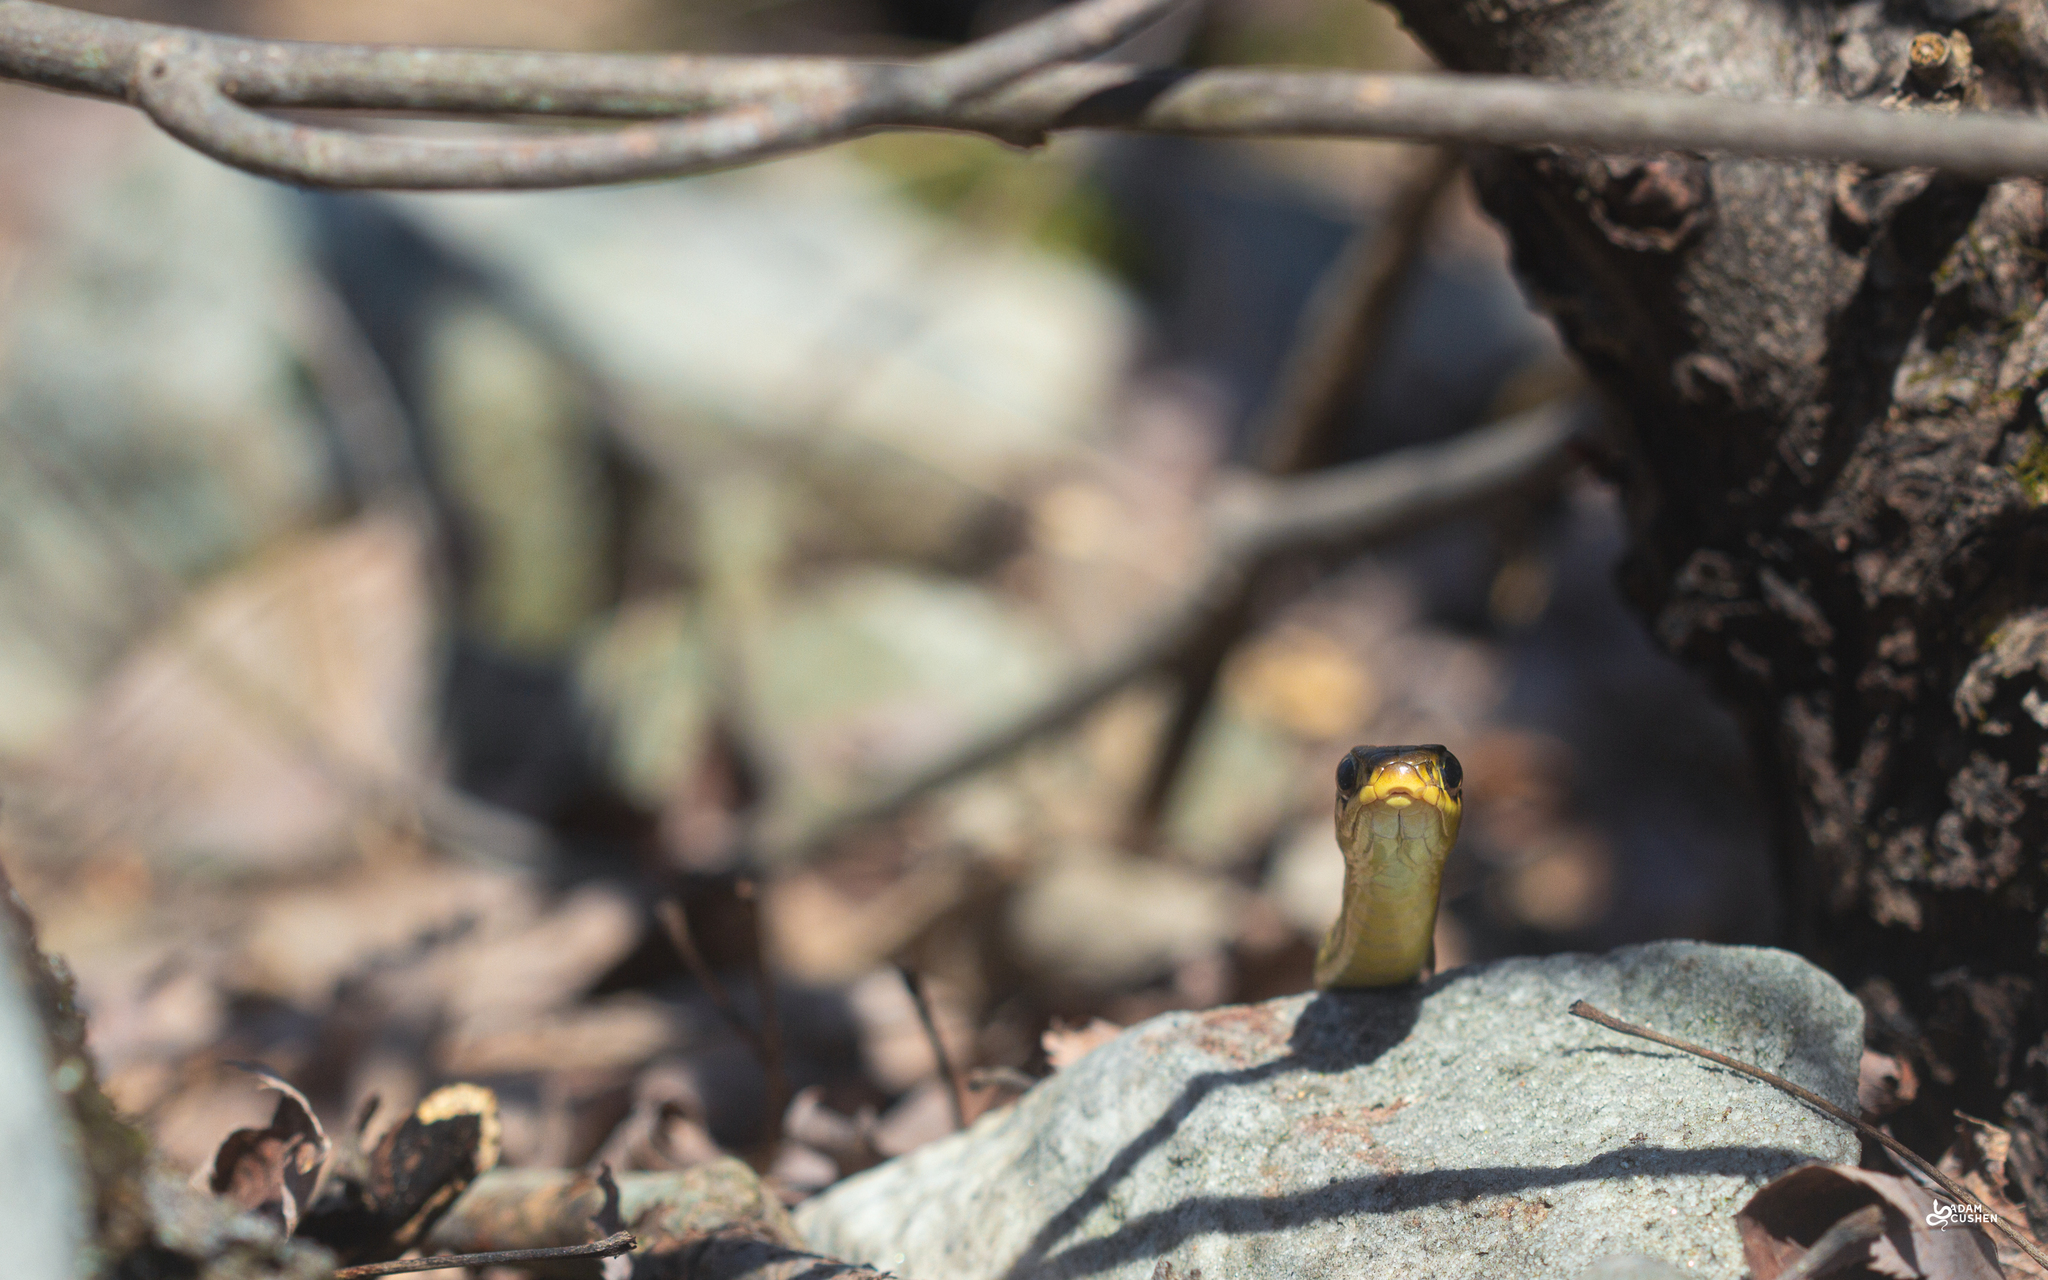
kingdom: Animalia
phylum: Chordata
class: Squamata
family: Colubridae
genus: Thamnophis
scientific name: Thamnophis sirtalis
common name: Common garter snake
